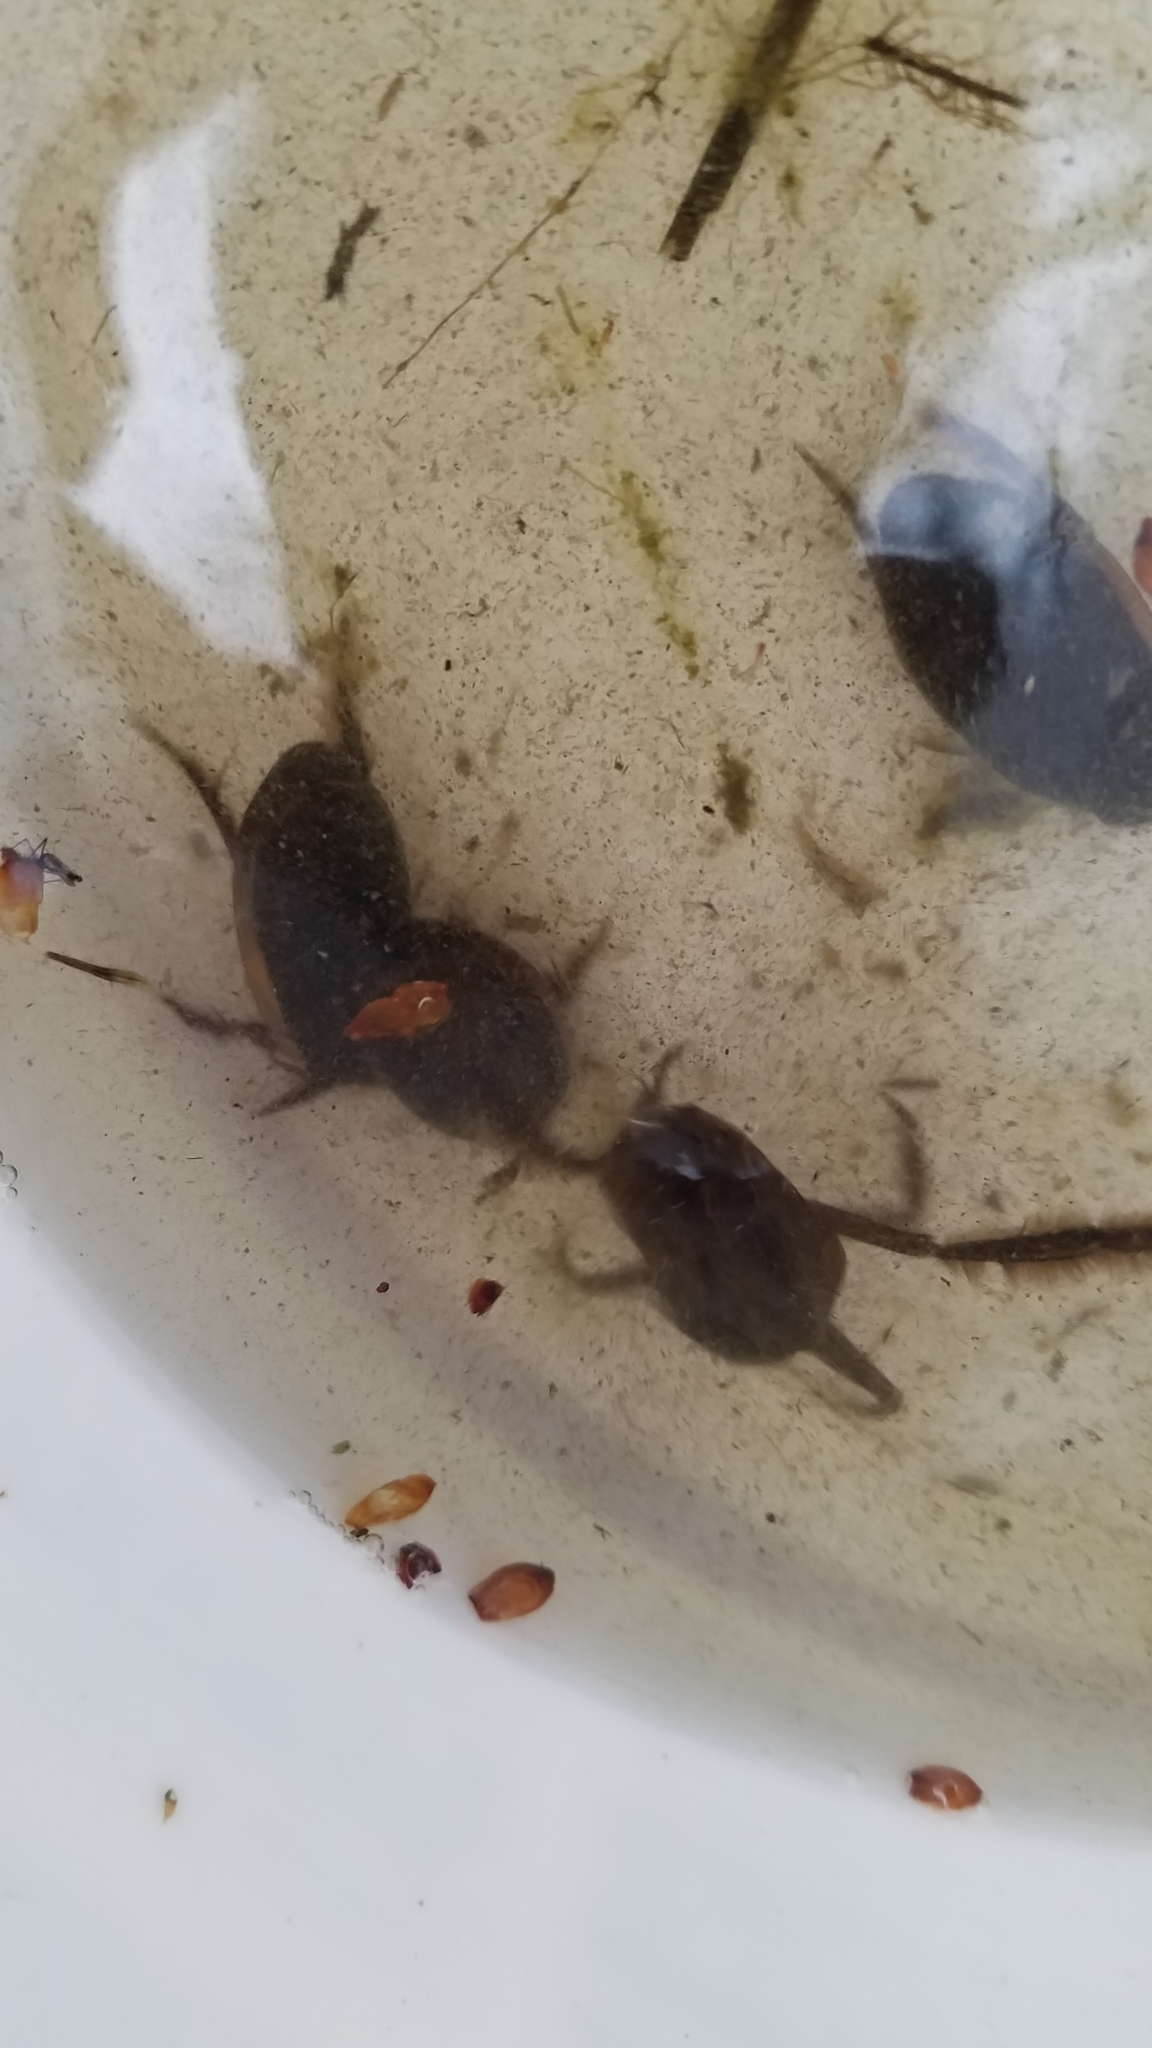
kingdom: Animalia
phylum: Arthropoda
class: Insecta
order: Hemiptera
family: Belostomatidae
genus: Lethocerus
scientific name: Lethocerus americanus
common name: Giant water bug
